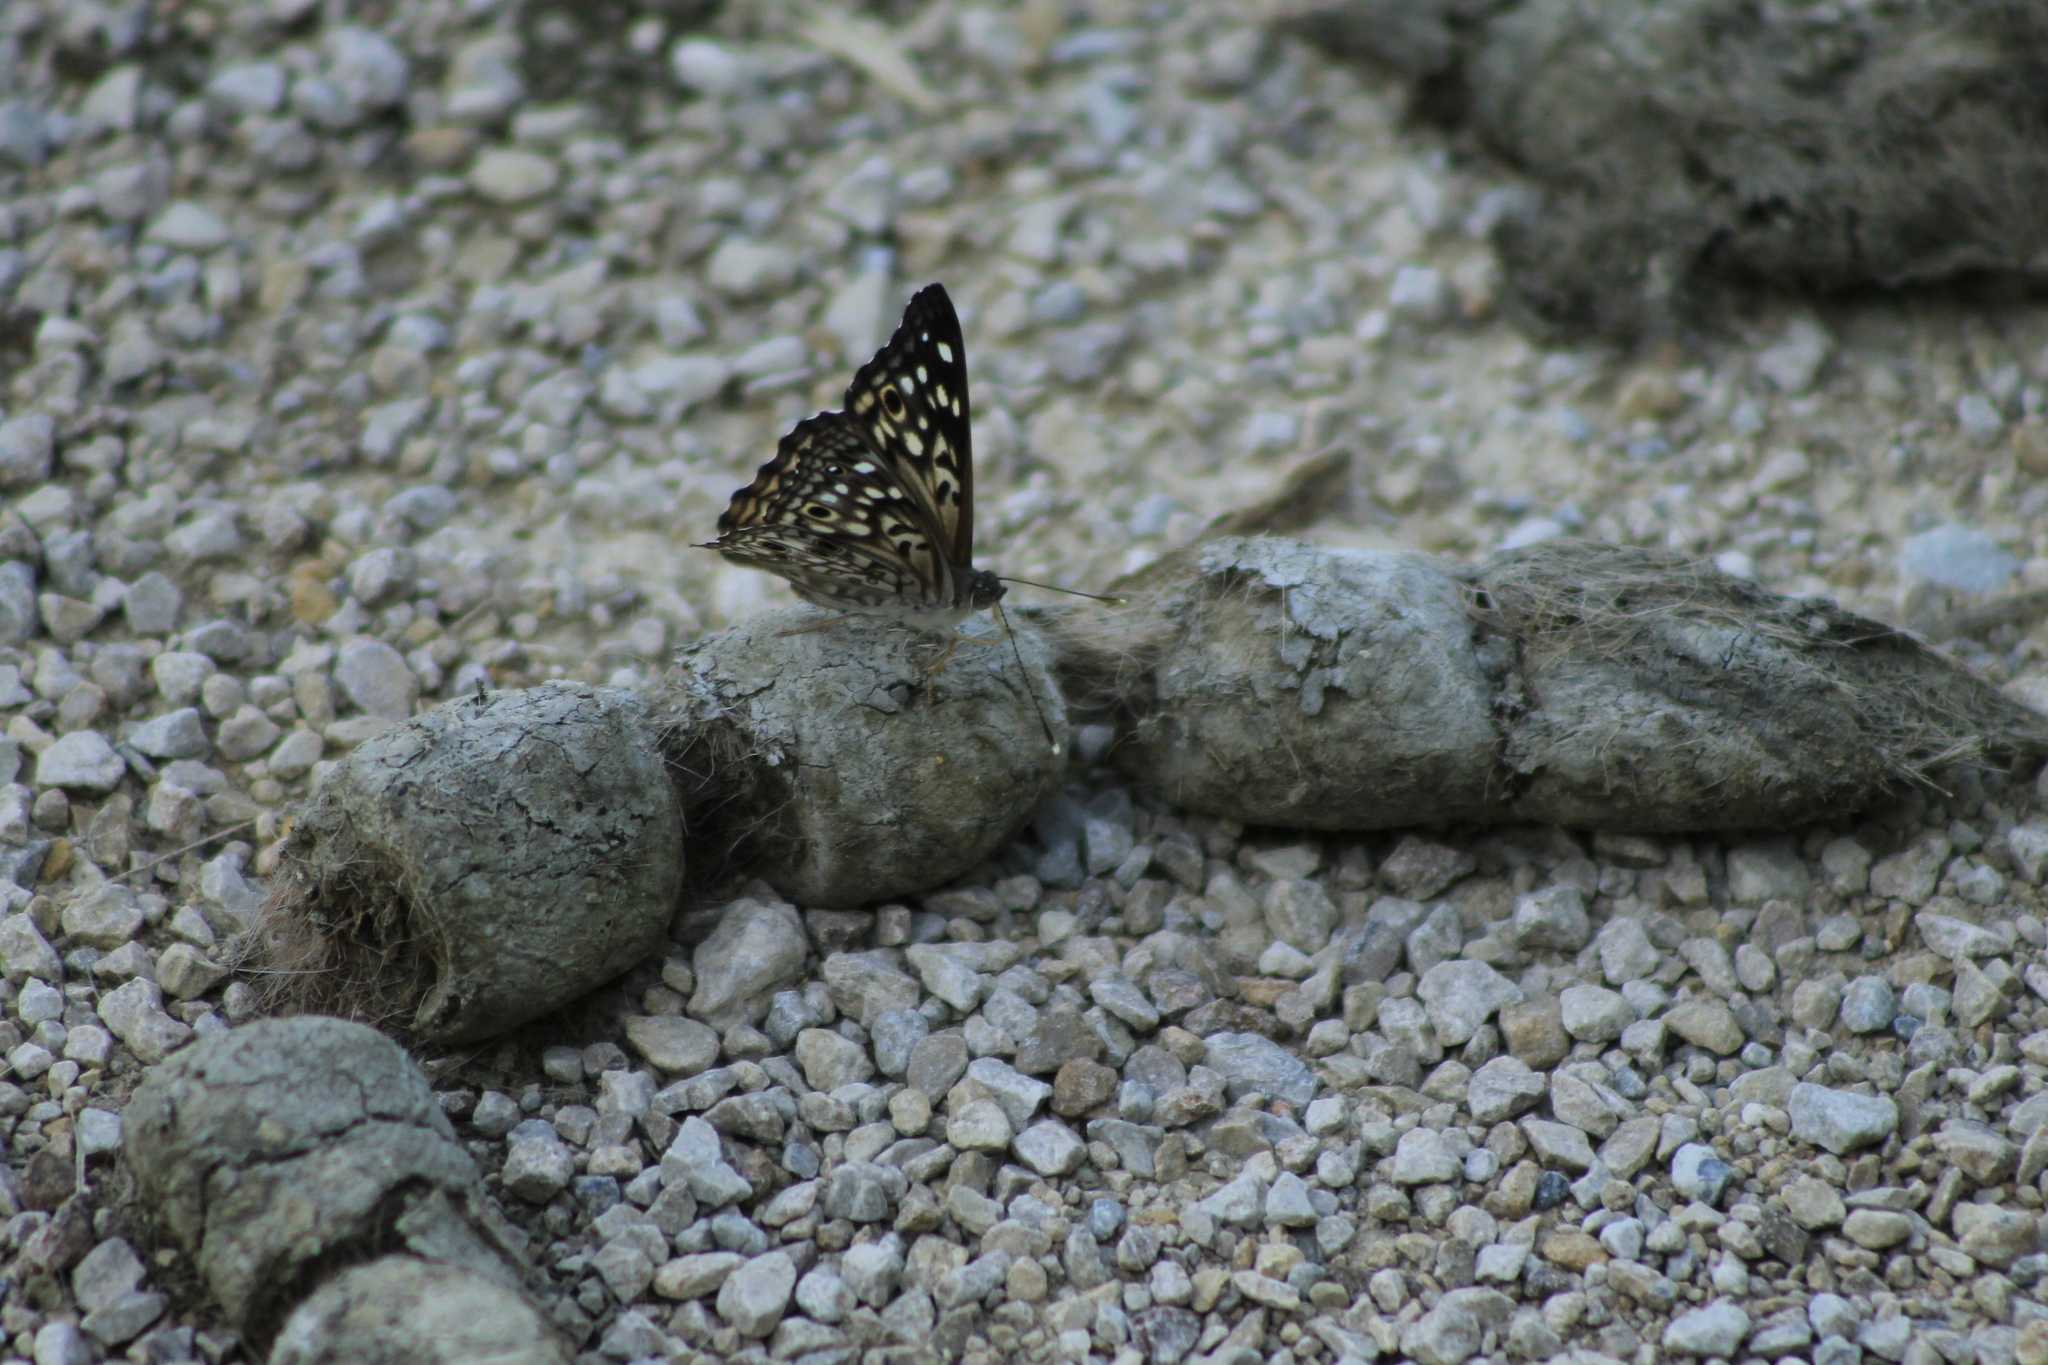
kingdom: Animalia
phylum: Arthropoda
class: Insecta
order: Lepidoptera
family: Nymphalidae
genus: Asterocampa
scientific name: Asterocampa celtis
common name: Hackberry emperor
